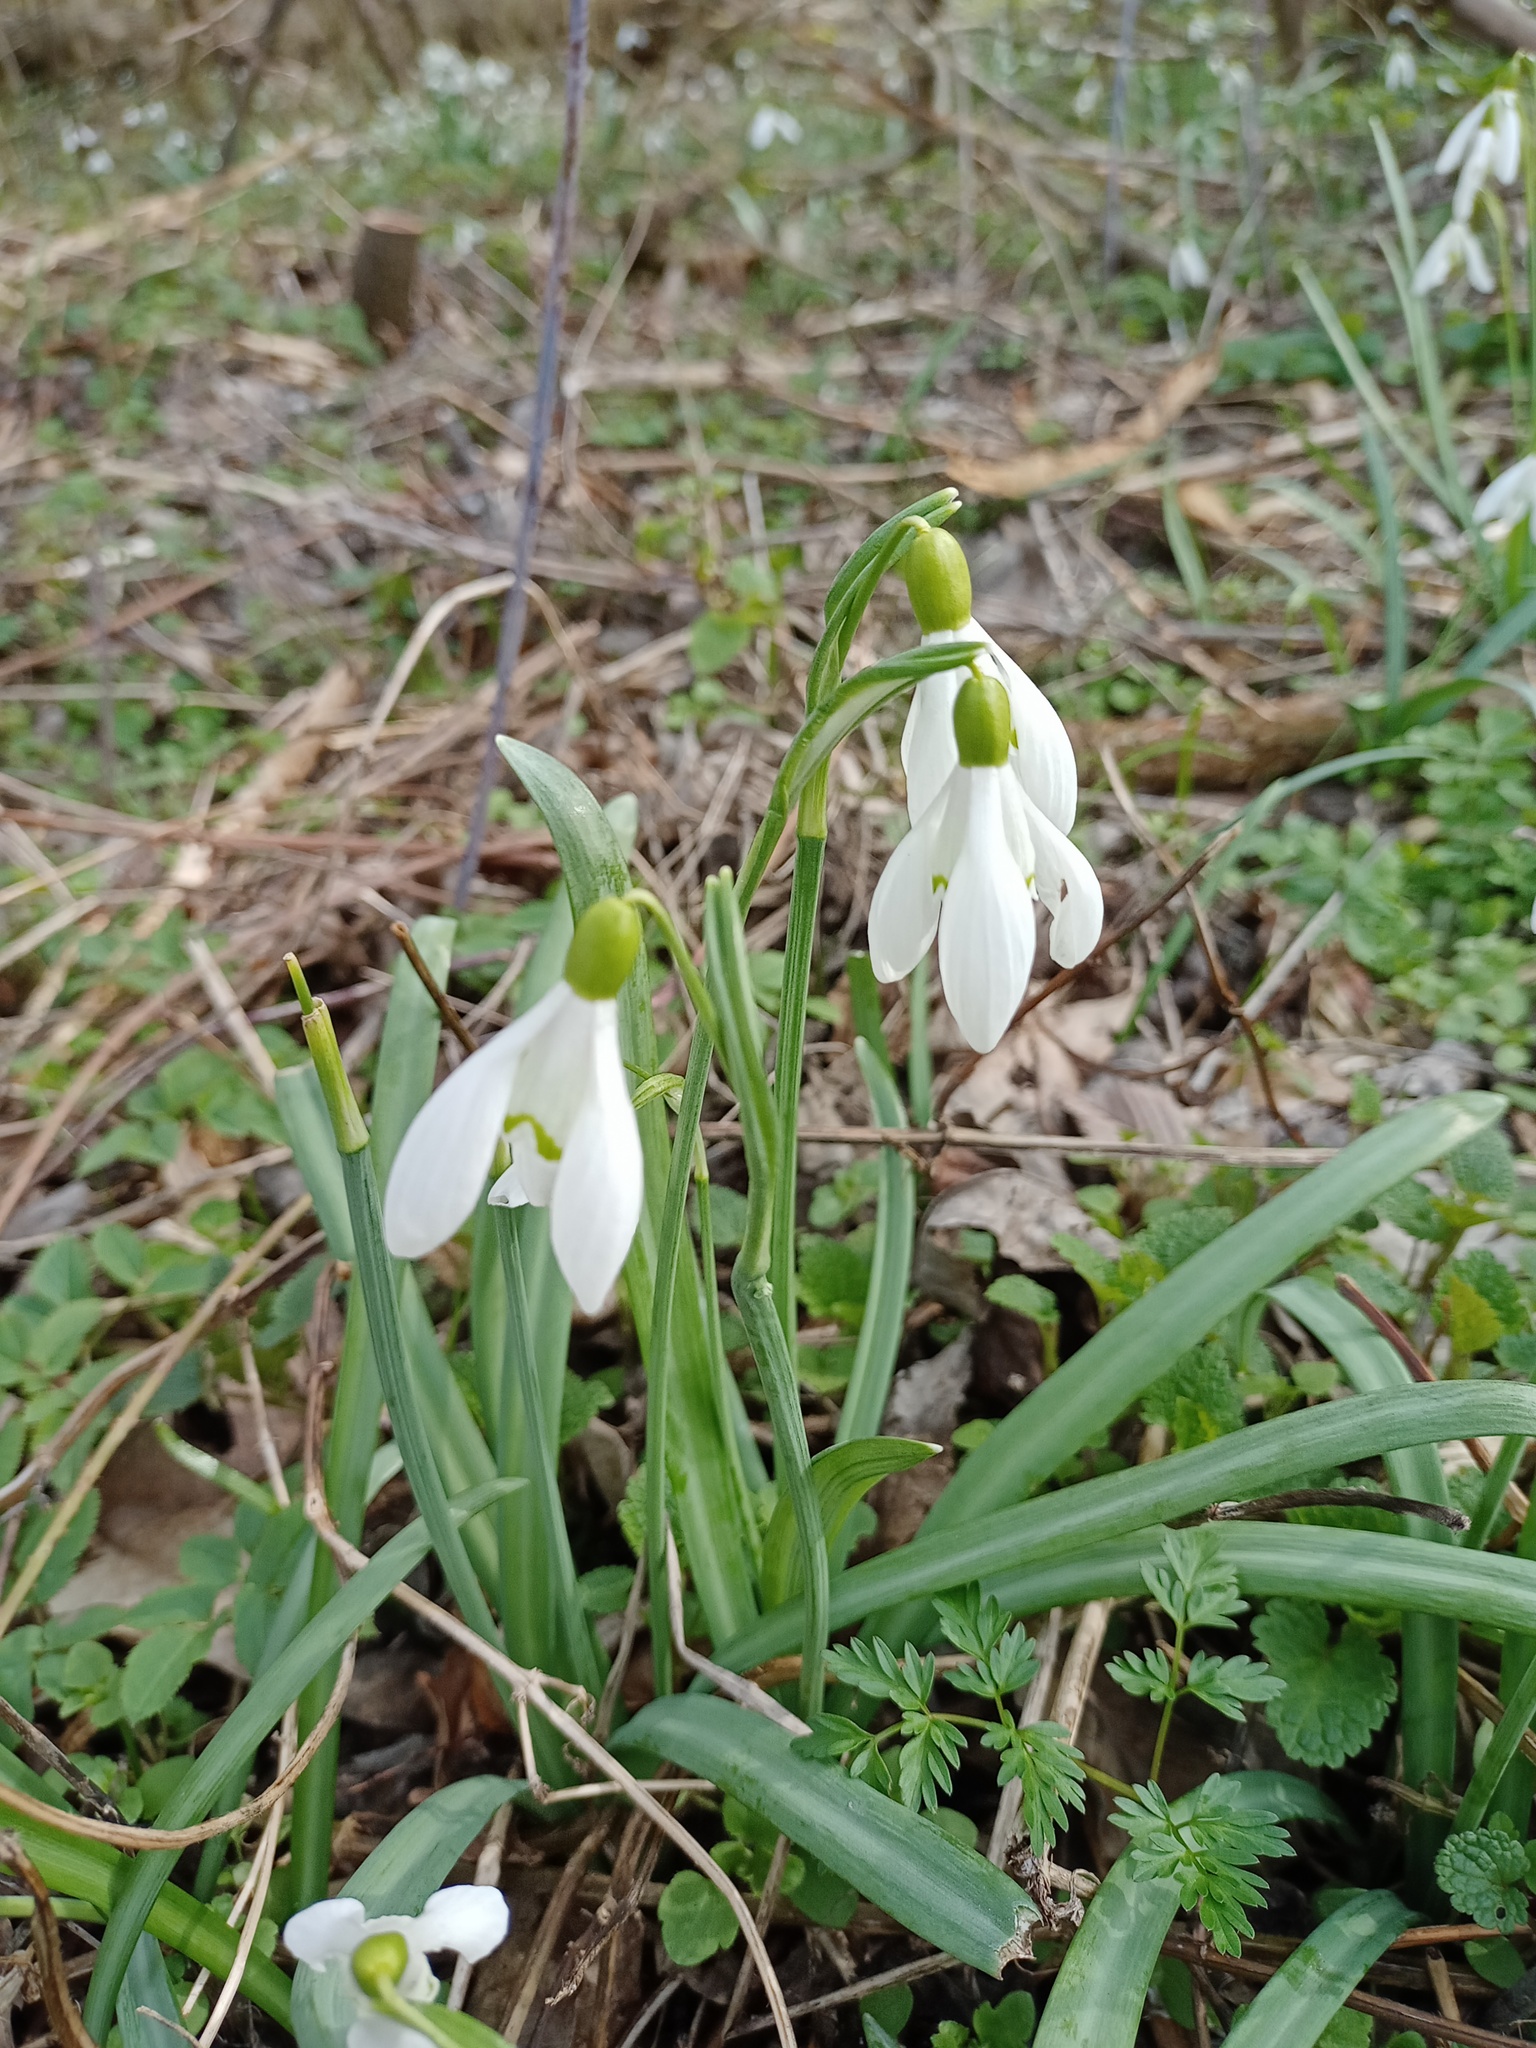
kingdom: Plantae
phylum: Tracheophyta
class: Liliopsida
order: Asparagales
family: Amaryllidaceae
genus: Galanthus
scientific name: Galanthus nivalis
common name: Snowdrop
